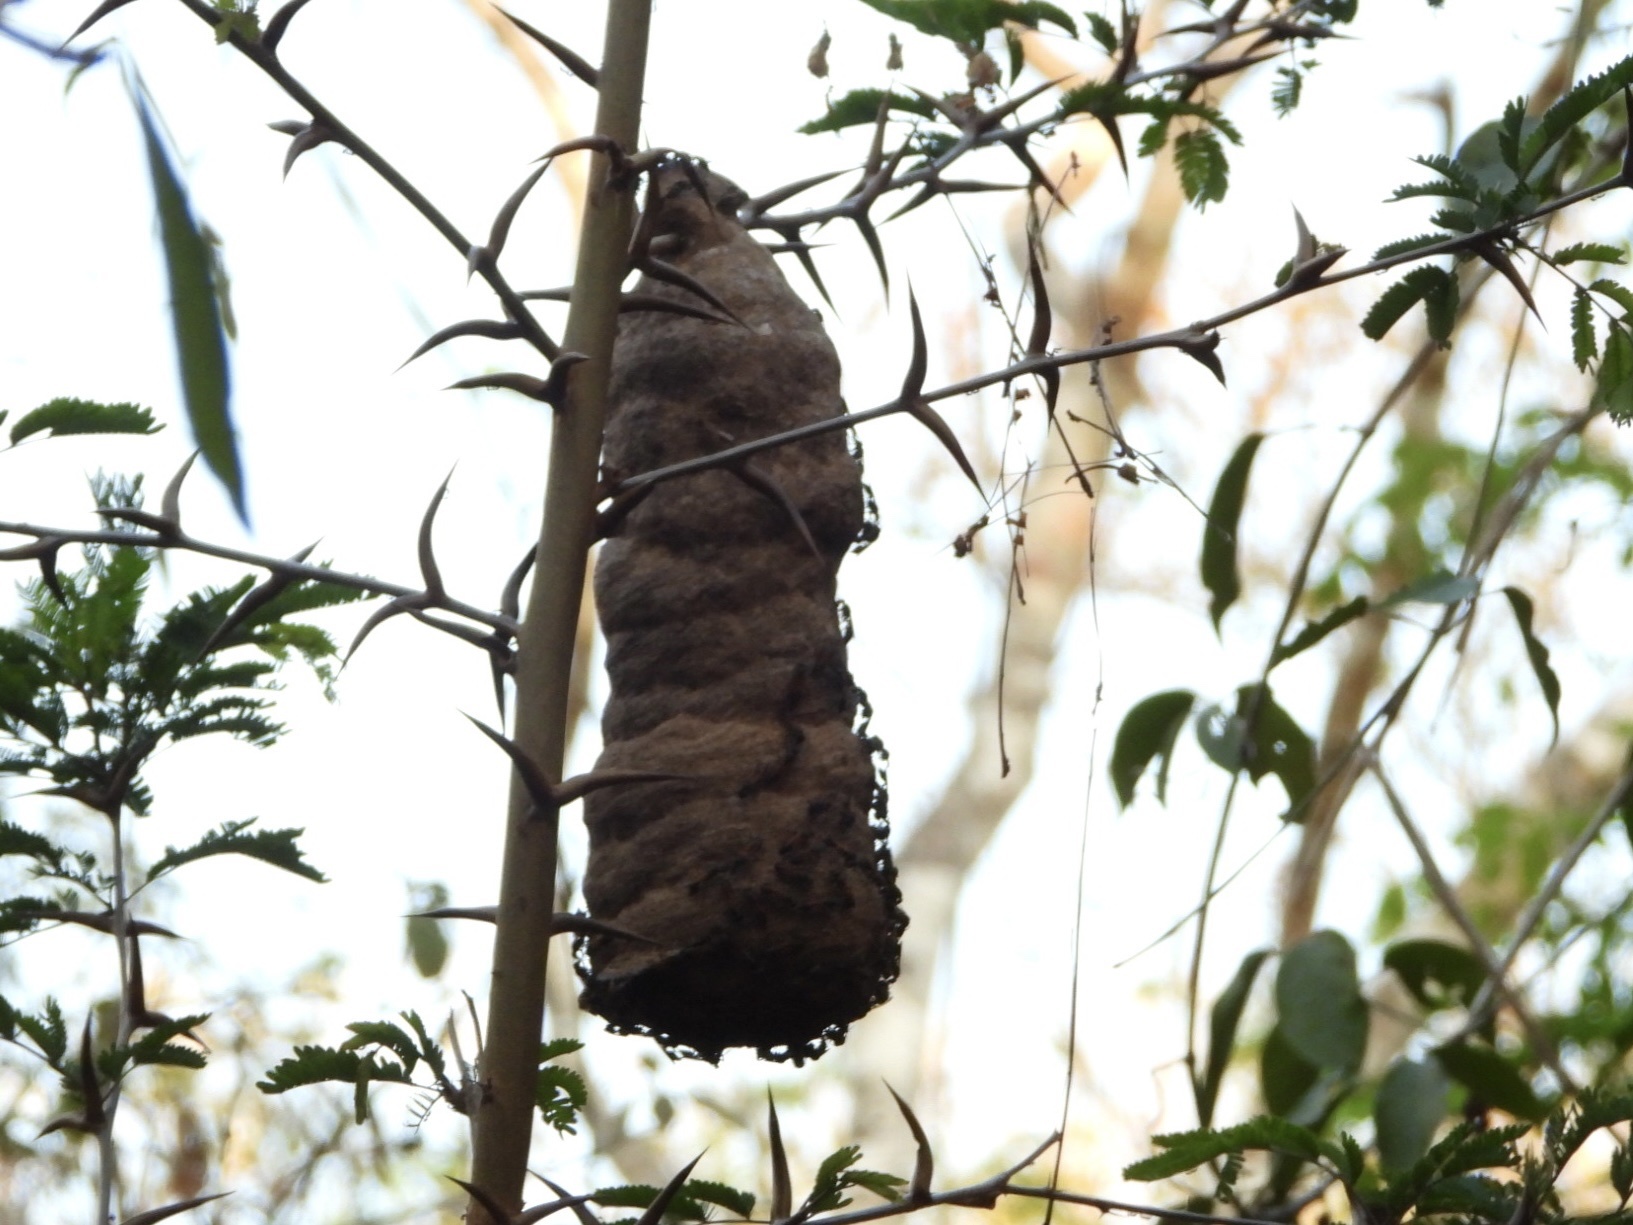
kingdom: Animalia
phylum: Arthropoda
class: Insecta
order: Hymenoptera
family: Eumenidae
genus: Polybia
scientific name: Polybia rejecta
